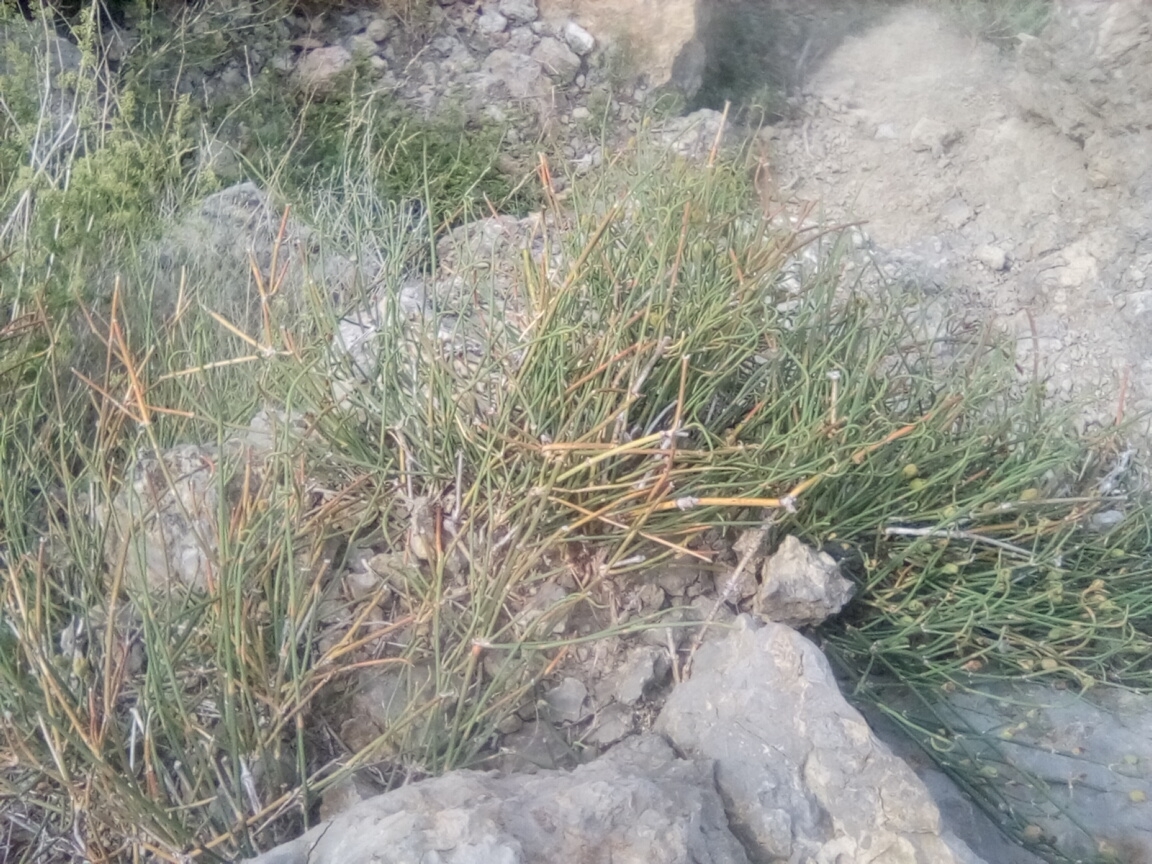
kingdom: Plantae
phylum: Tracheophyta
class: Gnetopsida
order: Ephedrales
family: Ephedraceae
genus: Ephedra
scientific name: Ephedra distachya
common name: Sea grape
